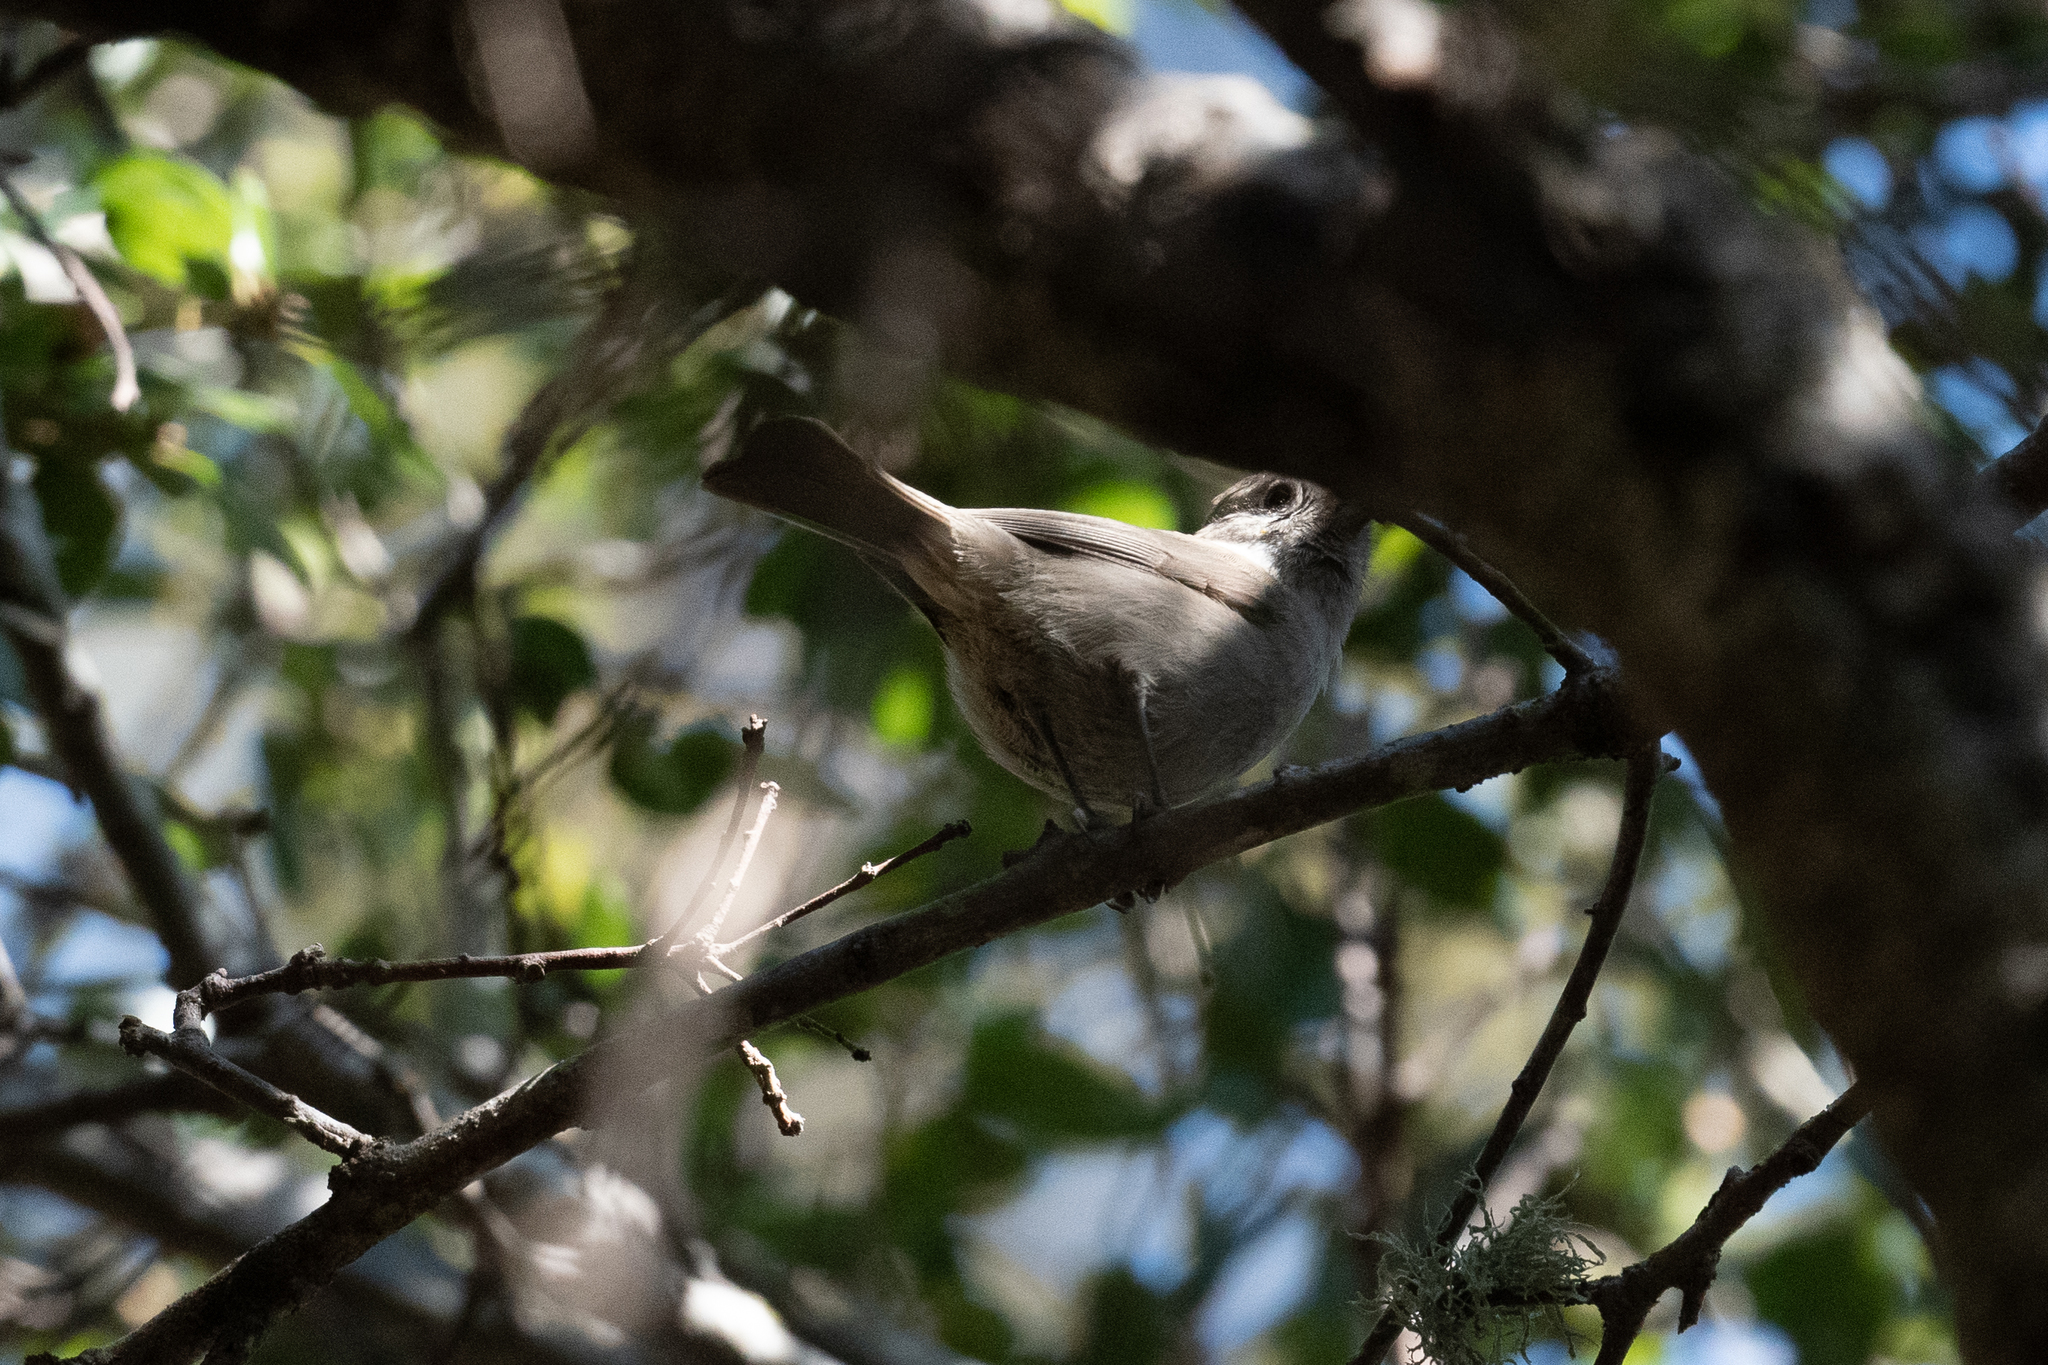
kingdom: Animalia
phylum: Chordata
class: Aves
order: Passeriformes
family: Paridae
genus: Baeolophus
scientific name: Baeolophus inornatus
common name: Oak titmouse
